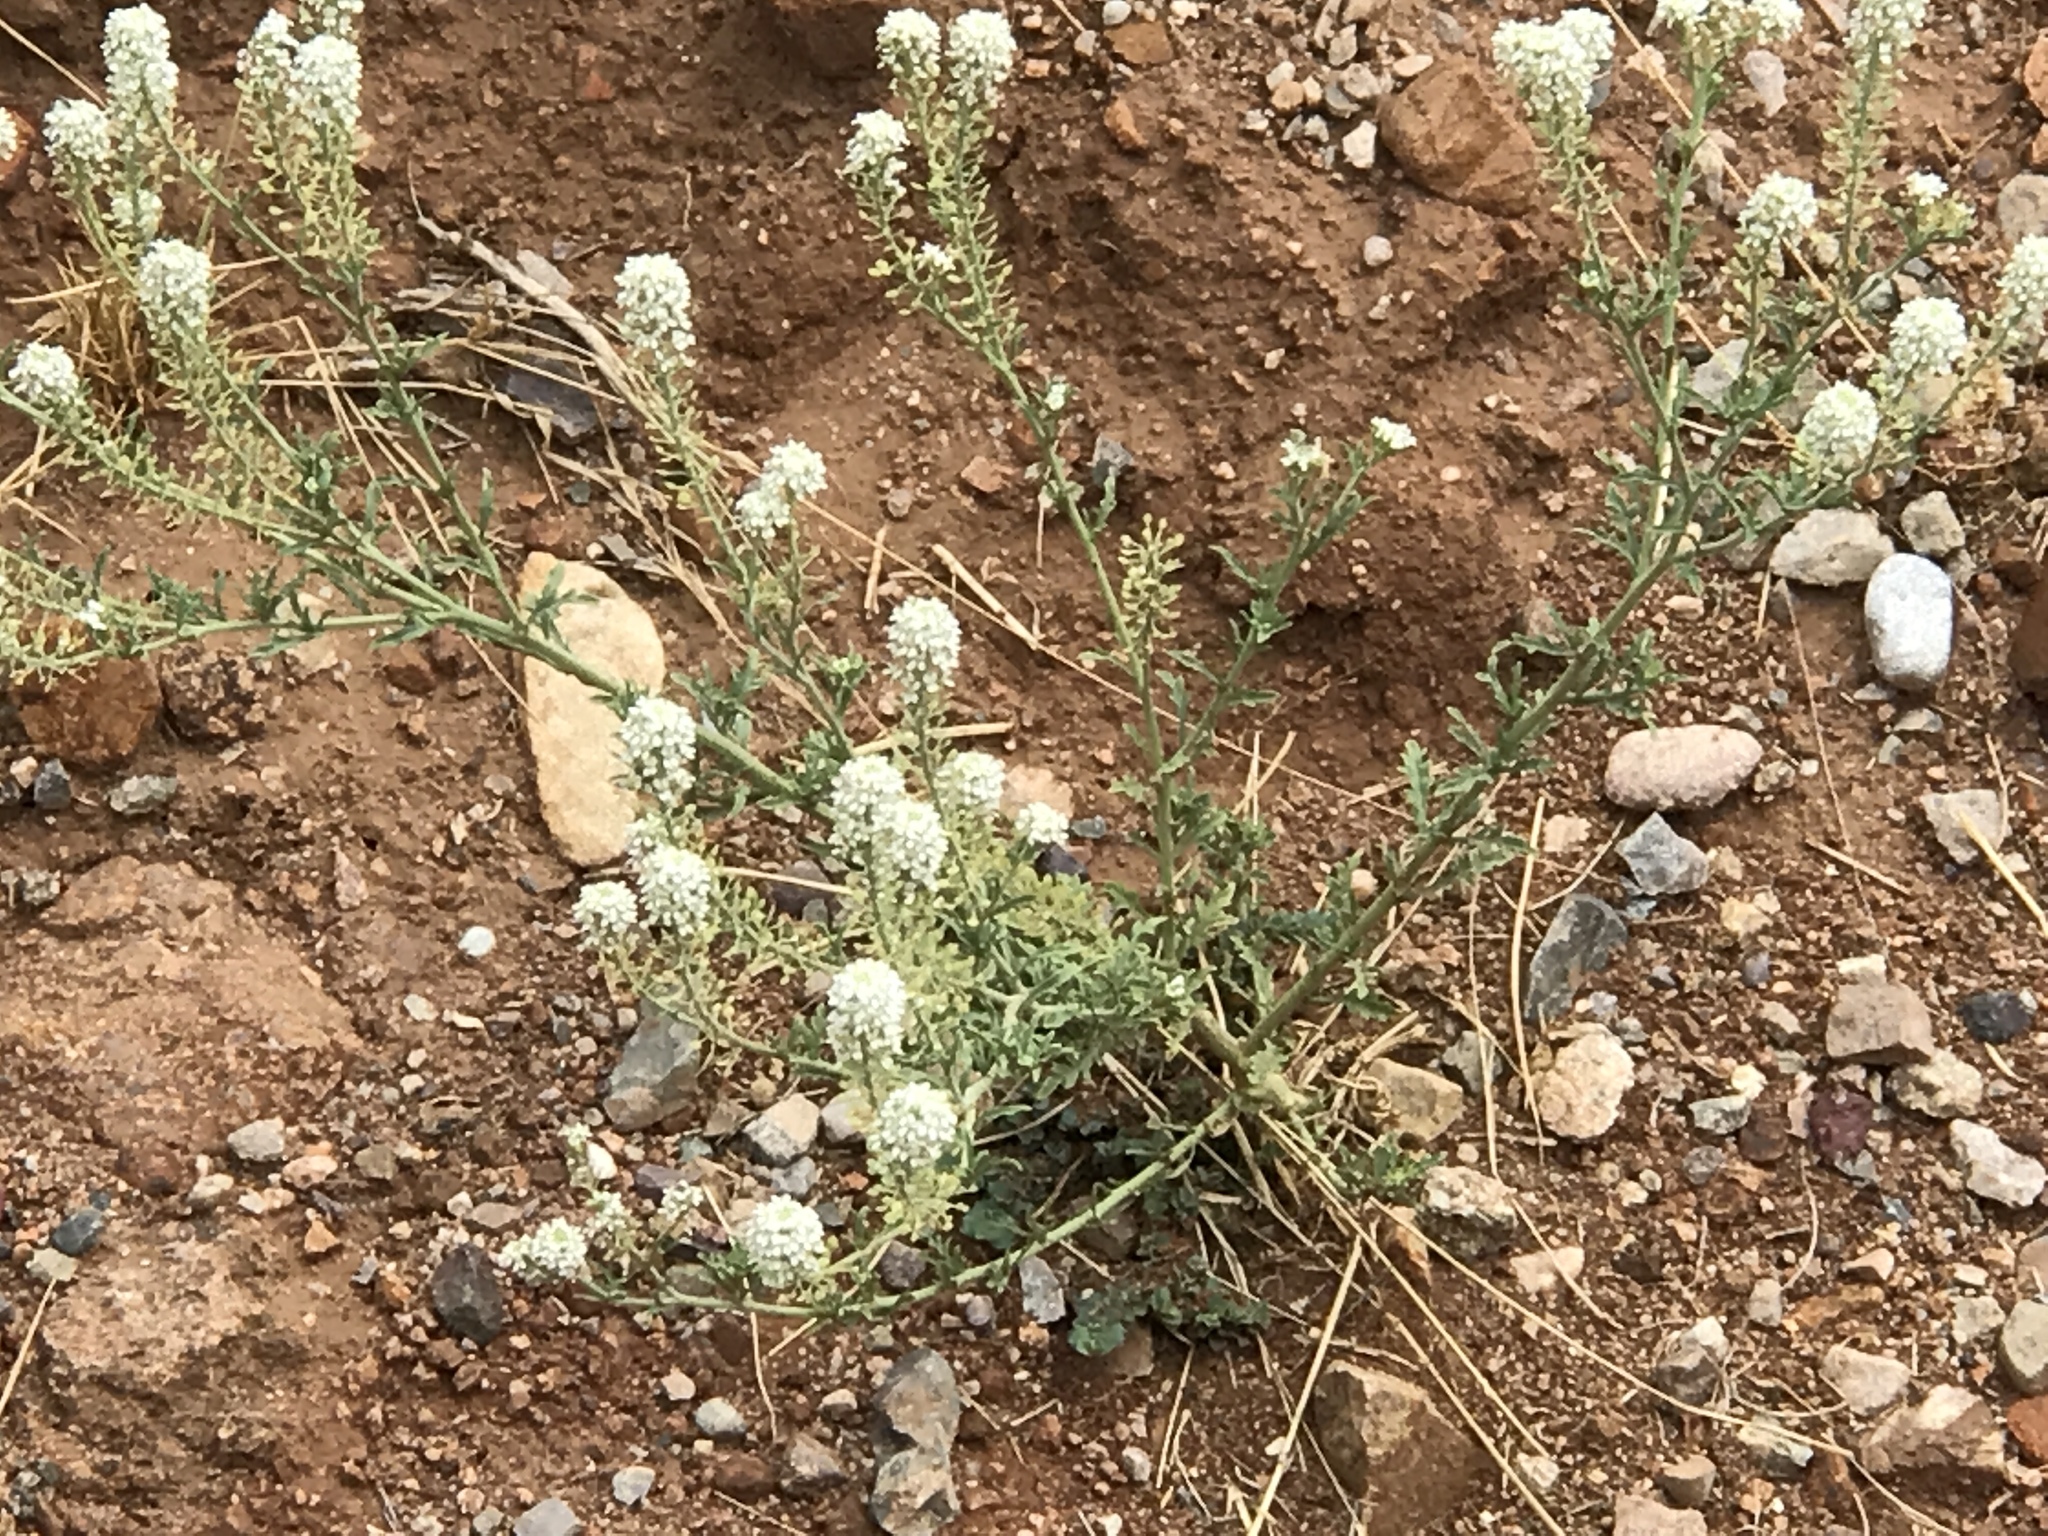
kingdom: Plantae
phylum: Tracheophyta
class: Magnoliopsida
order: Brassicales
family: Brassicaceae
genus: Lepidium
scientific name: Lepidium thurberi
